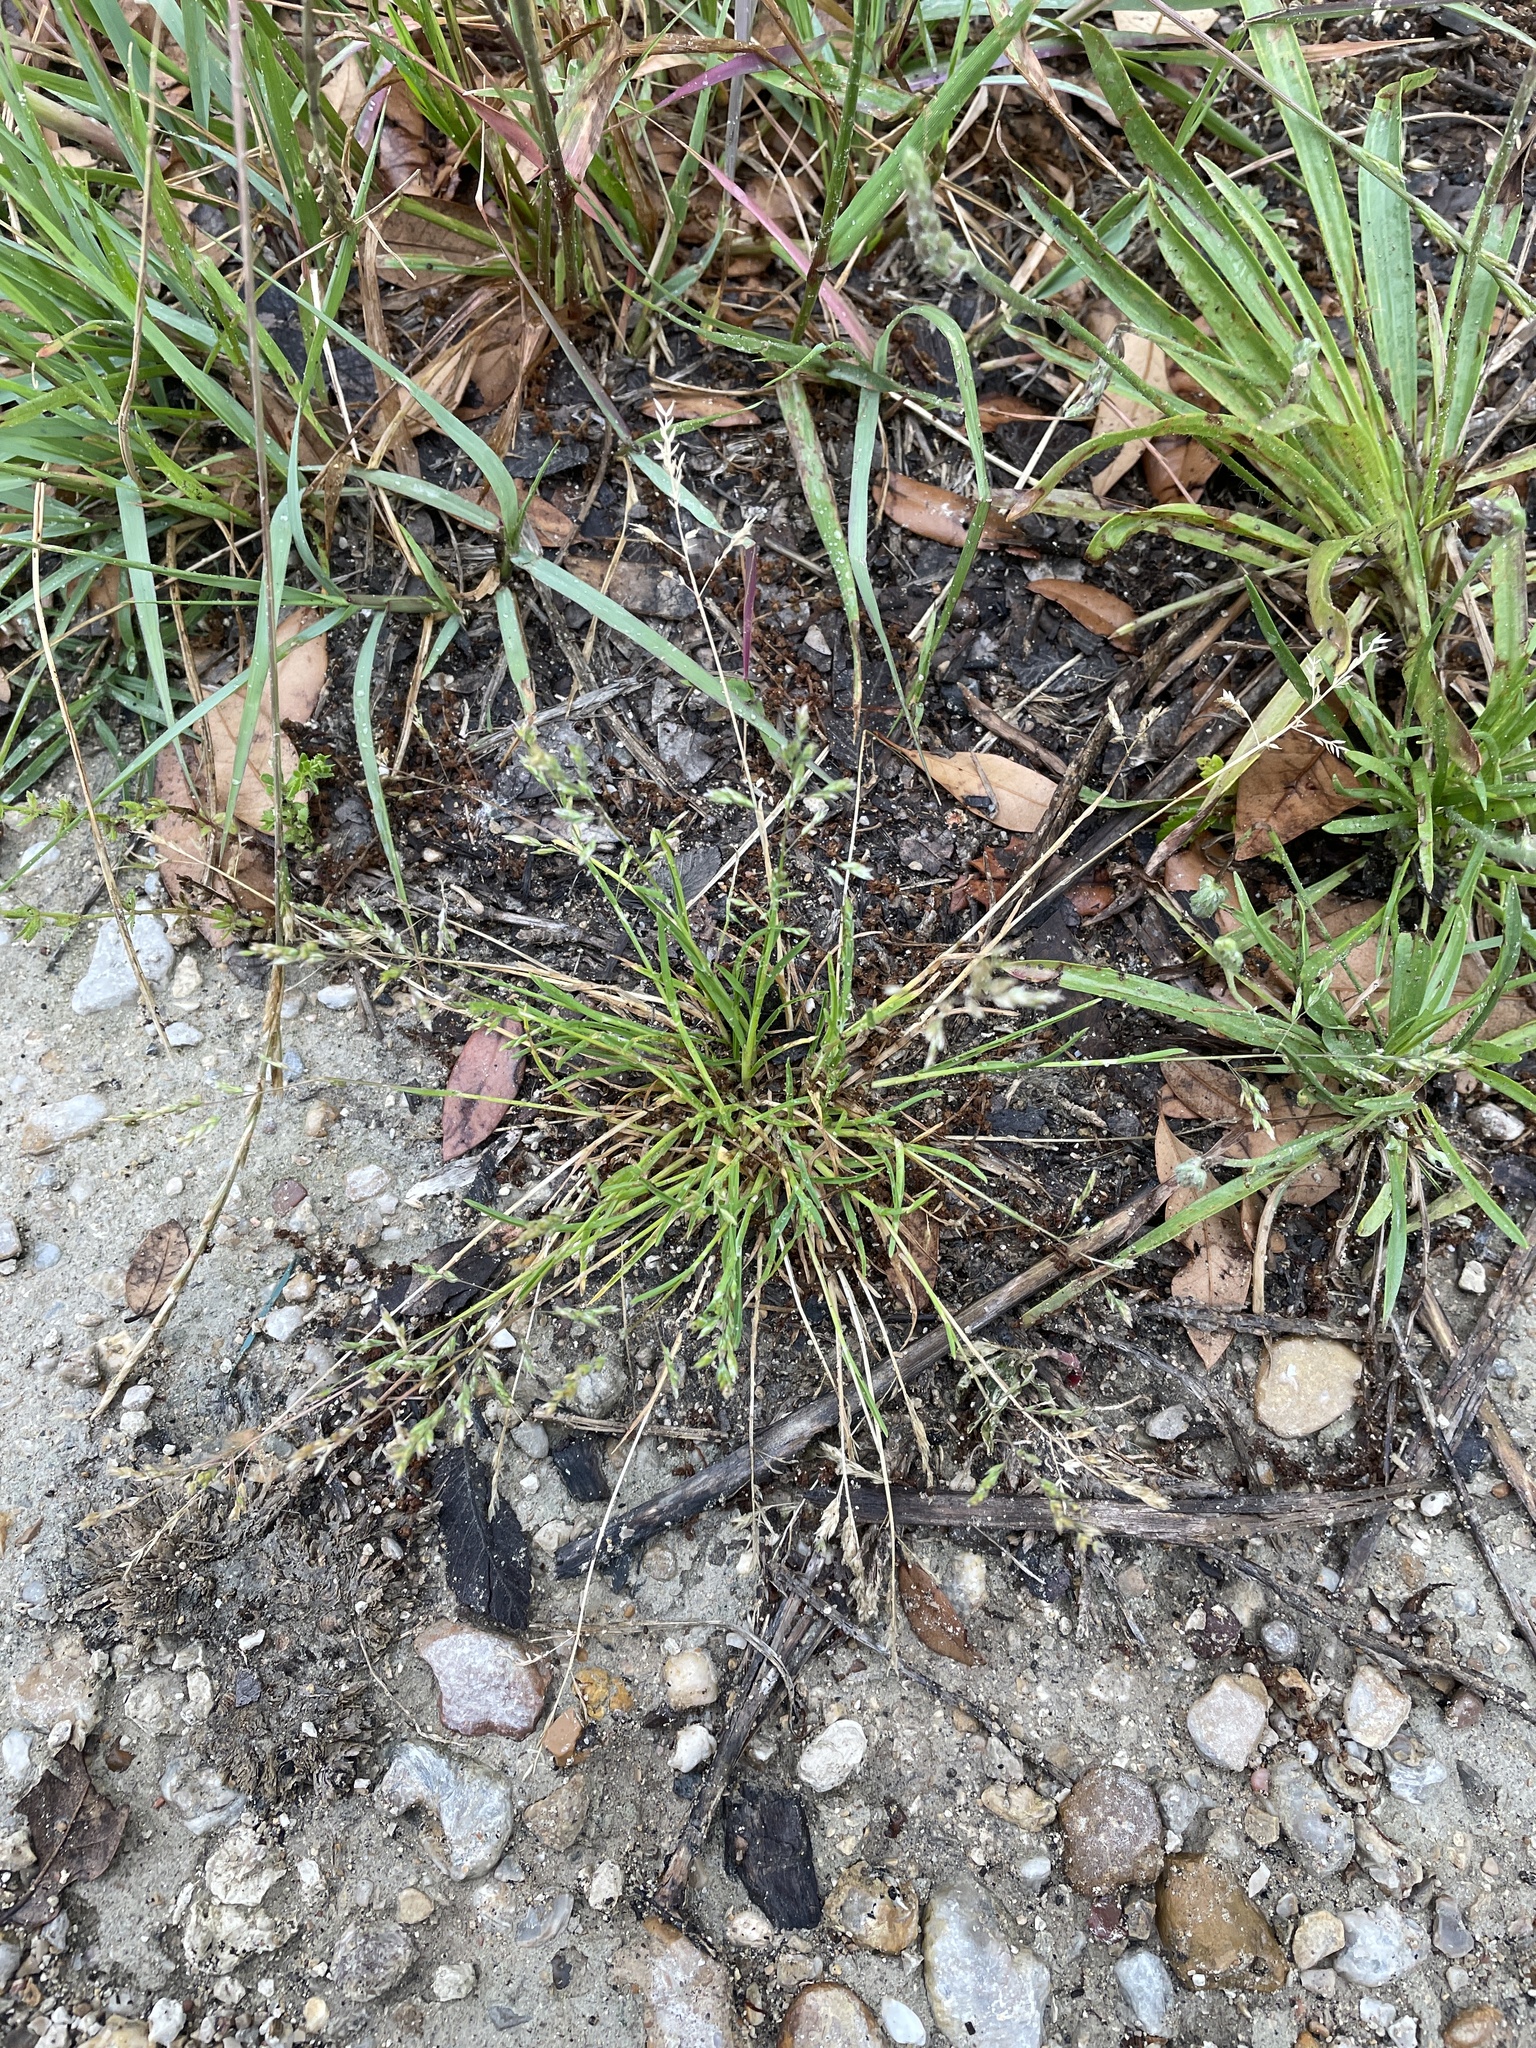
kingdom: Plantae
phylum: Tracheophyta
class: Liliopsida
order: Poales
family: Poaceae
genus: Poa
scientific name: Poa annua
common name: Annual bluegrass
